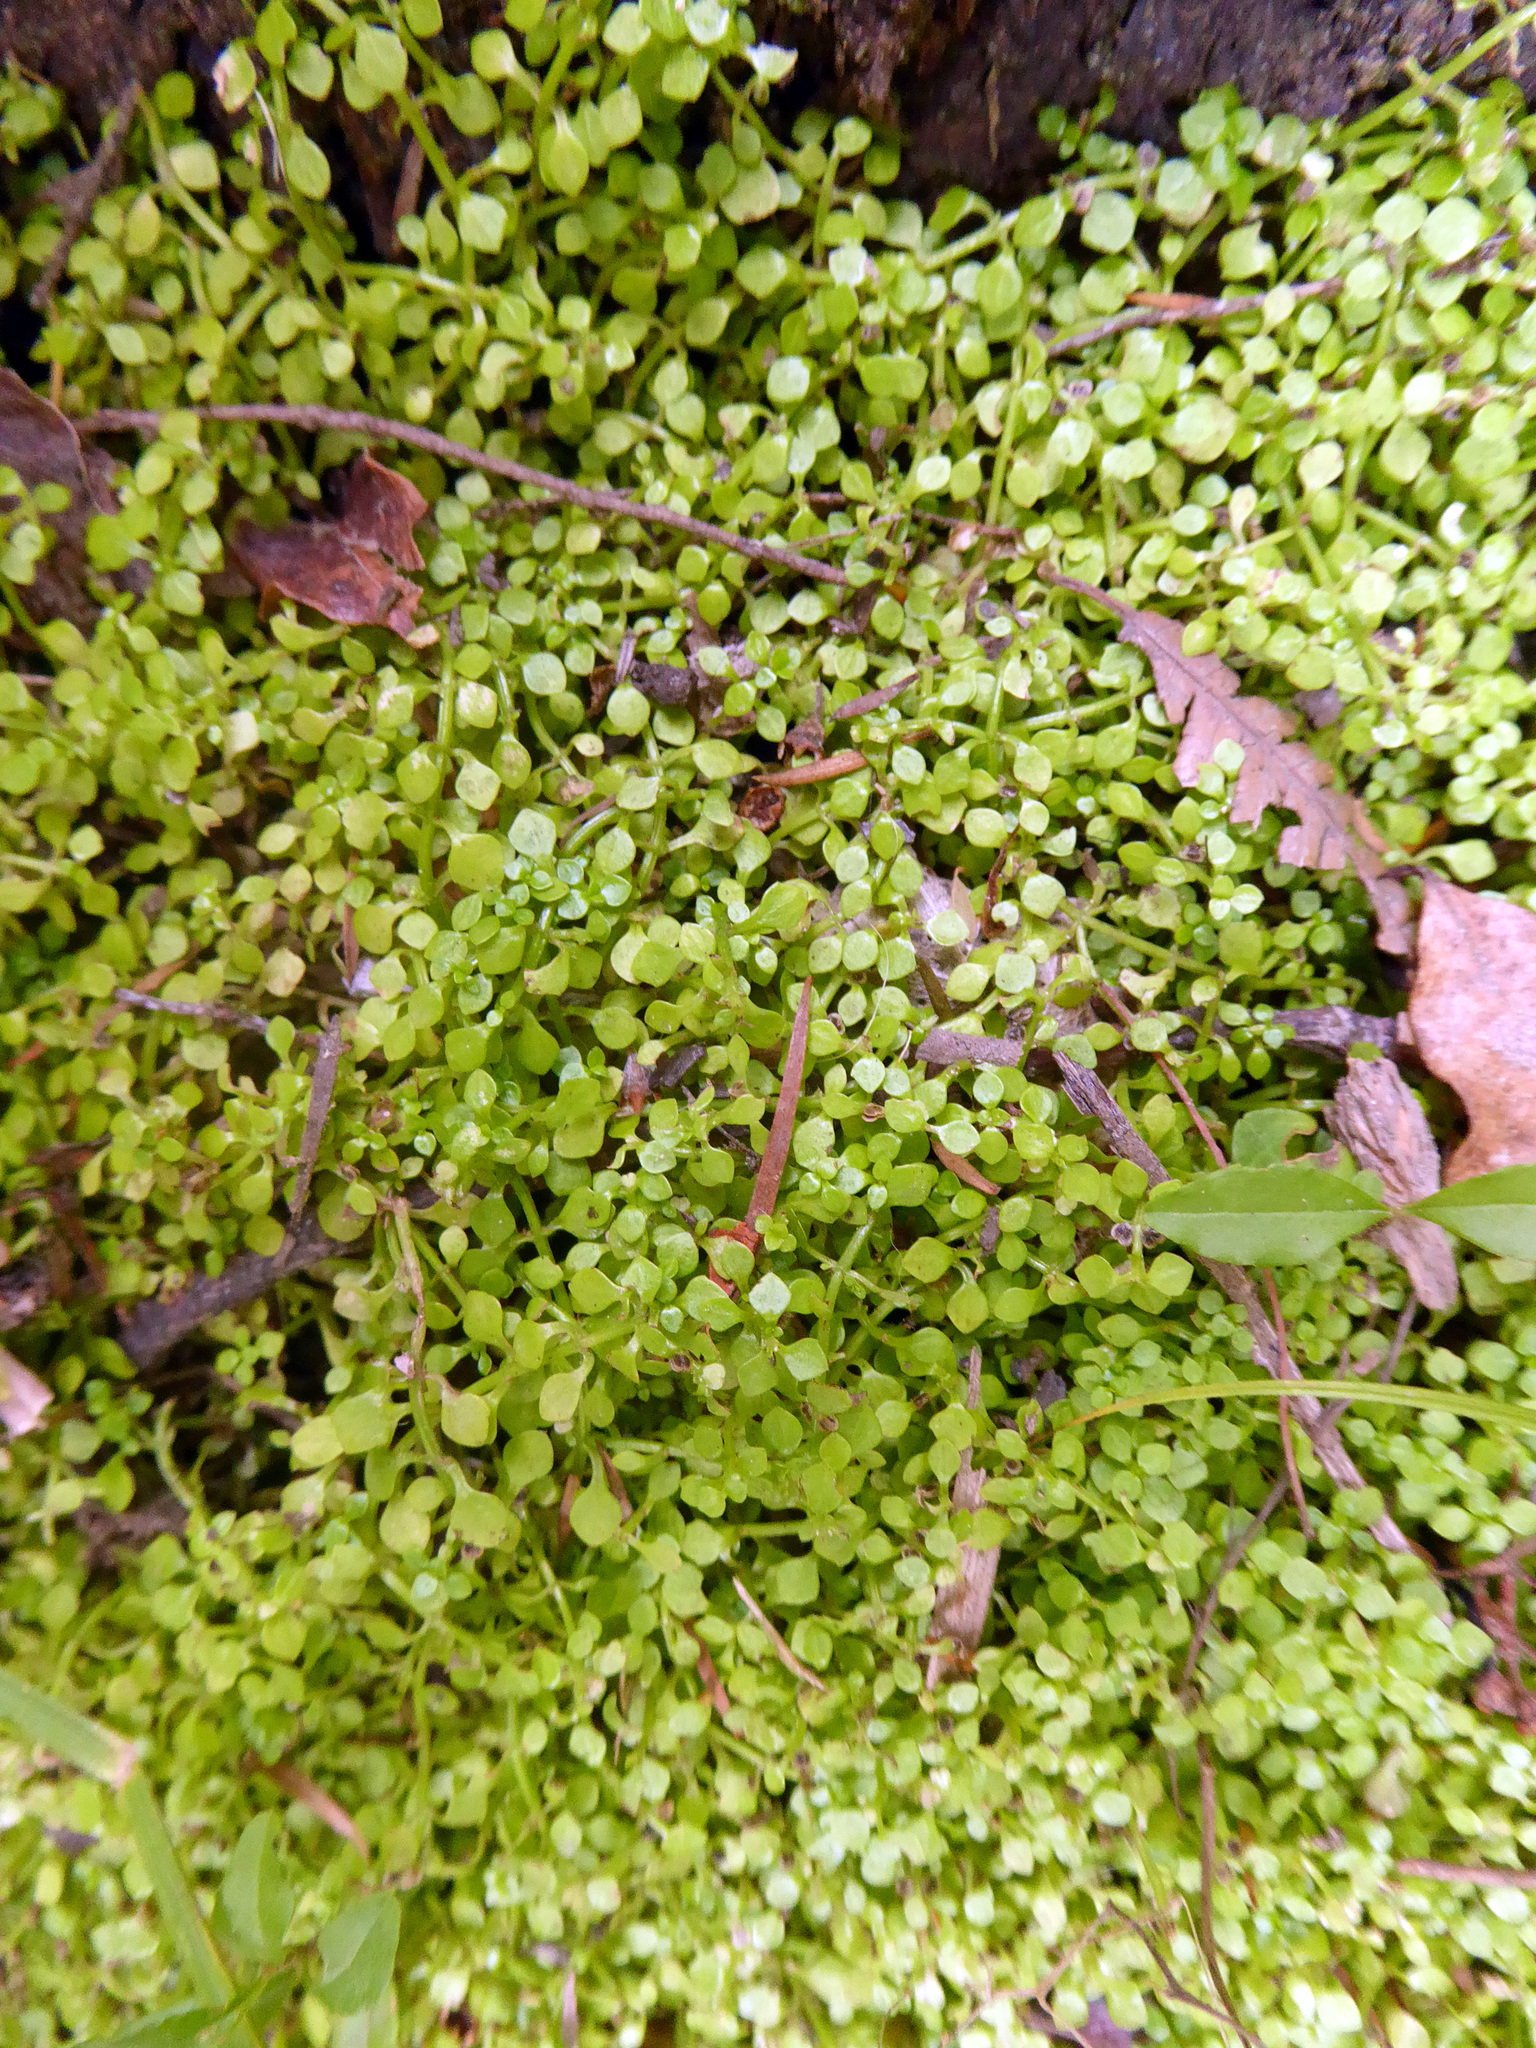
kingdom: Plantae
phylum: Tracheophyta
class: Magnoliopsida
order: Lamiales
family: Plantaginaceae
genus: Callitriche
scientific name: Callitriche muelleri
